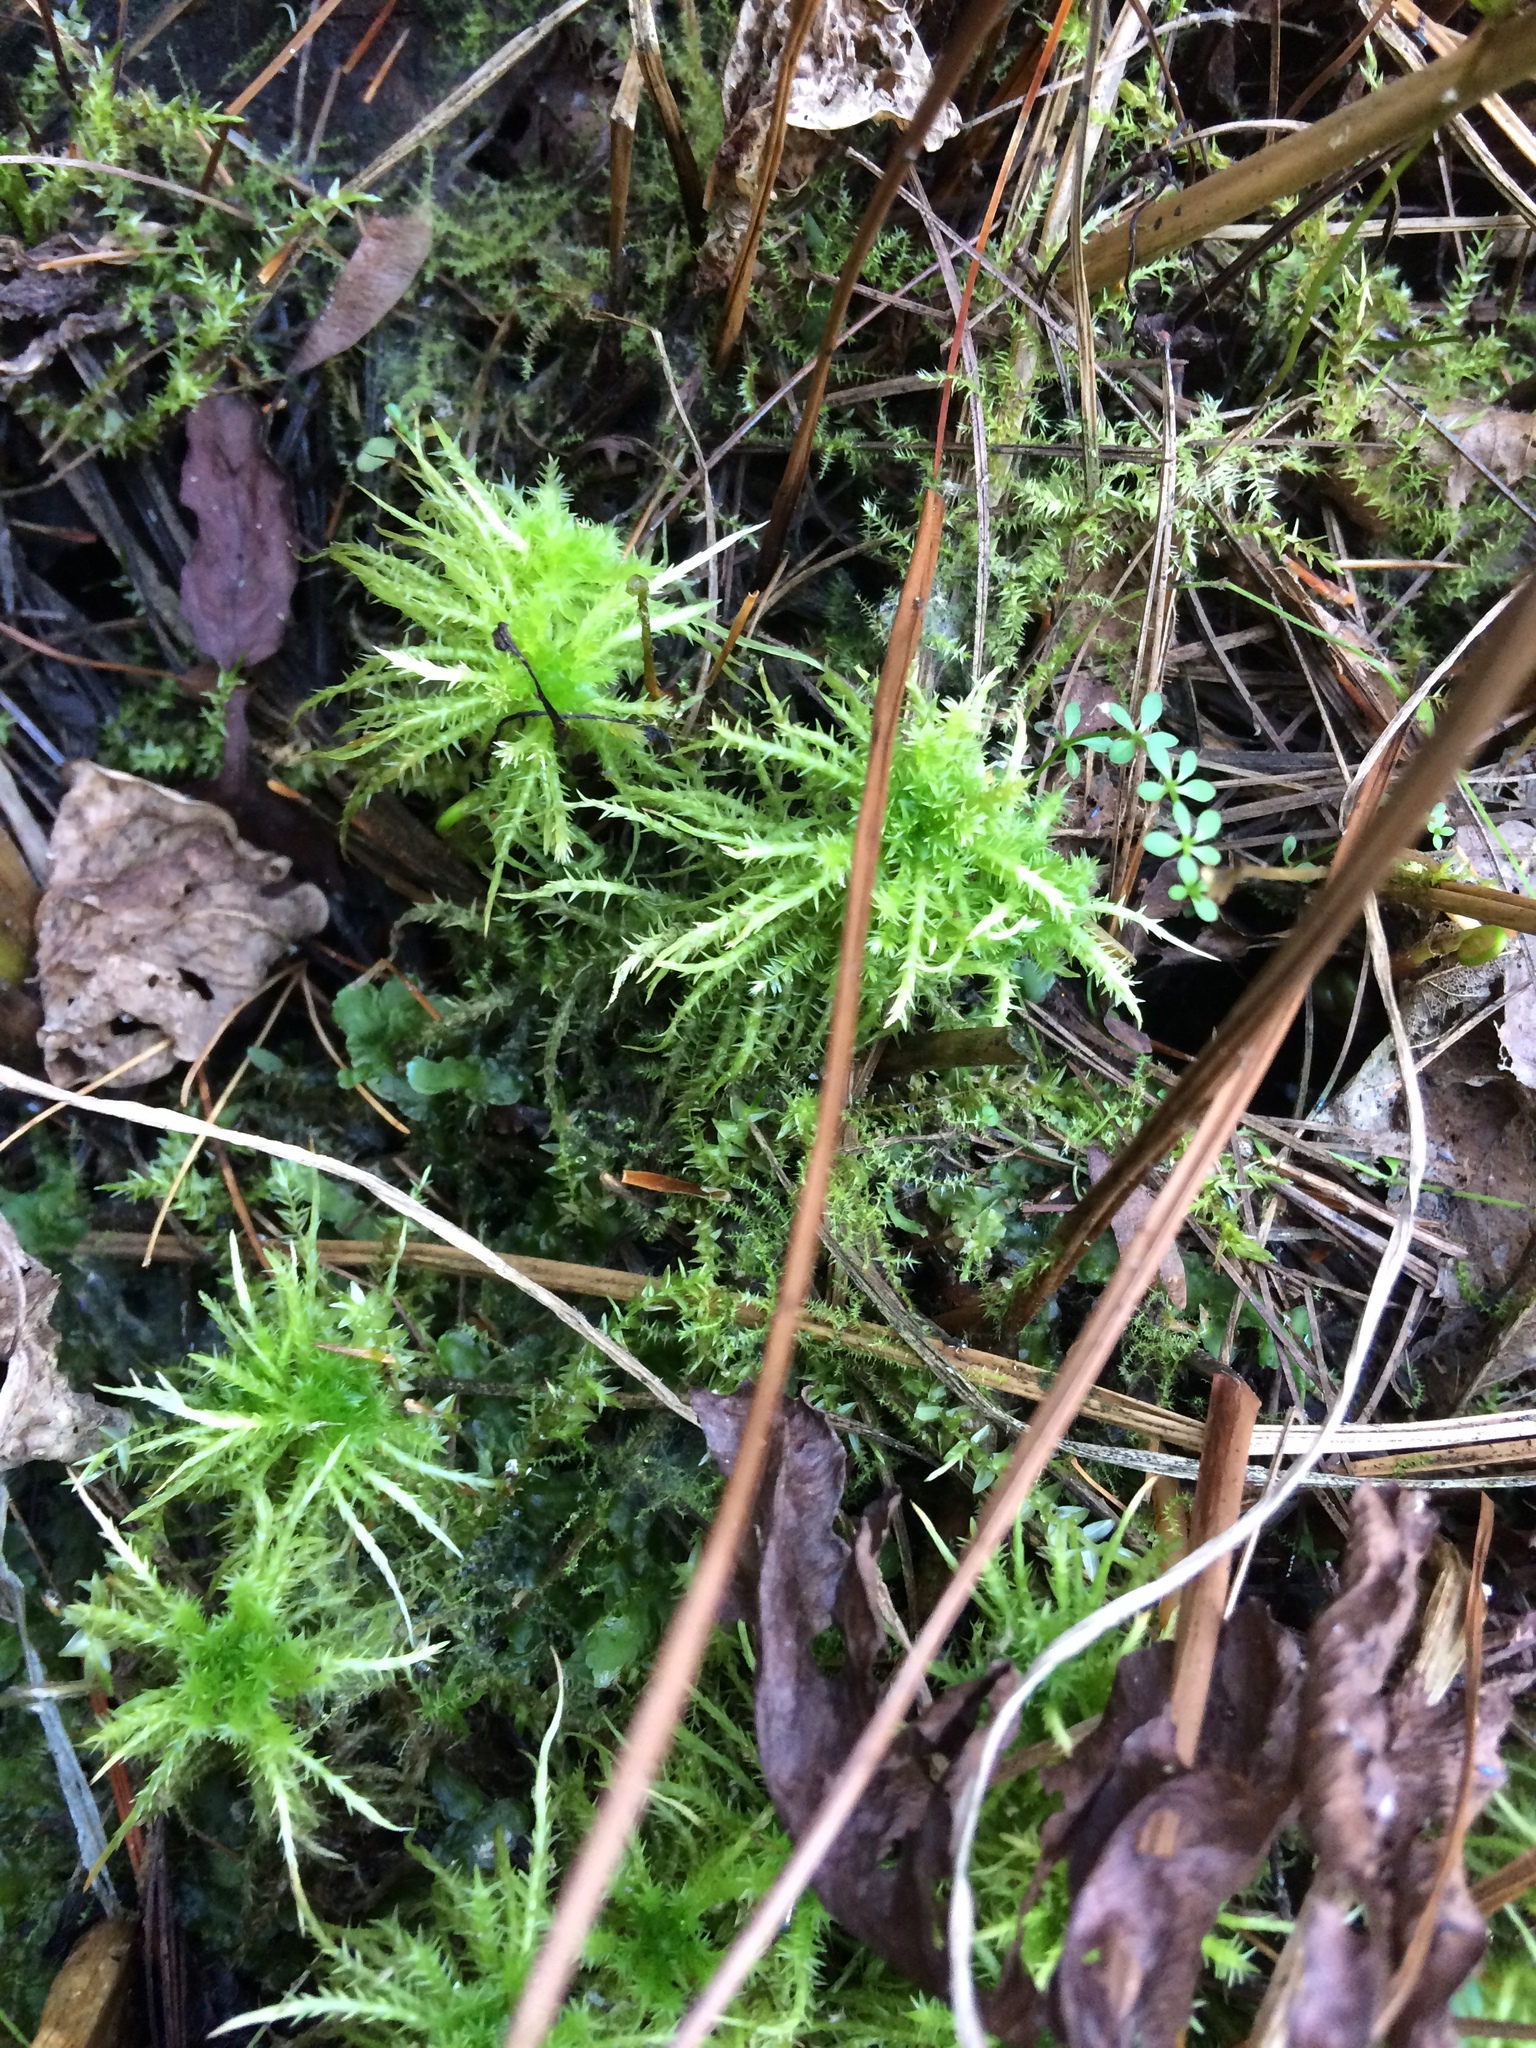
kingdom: Plantae
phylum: Bryophyta
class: Sphagnopsida
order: Sphagnales
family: Sphagnaceae
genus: Sphagnum
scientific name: Sphagnum squarrosum
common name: Shaggy peat moss
